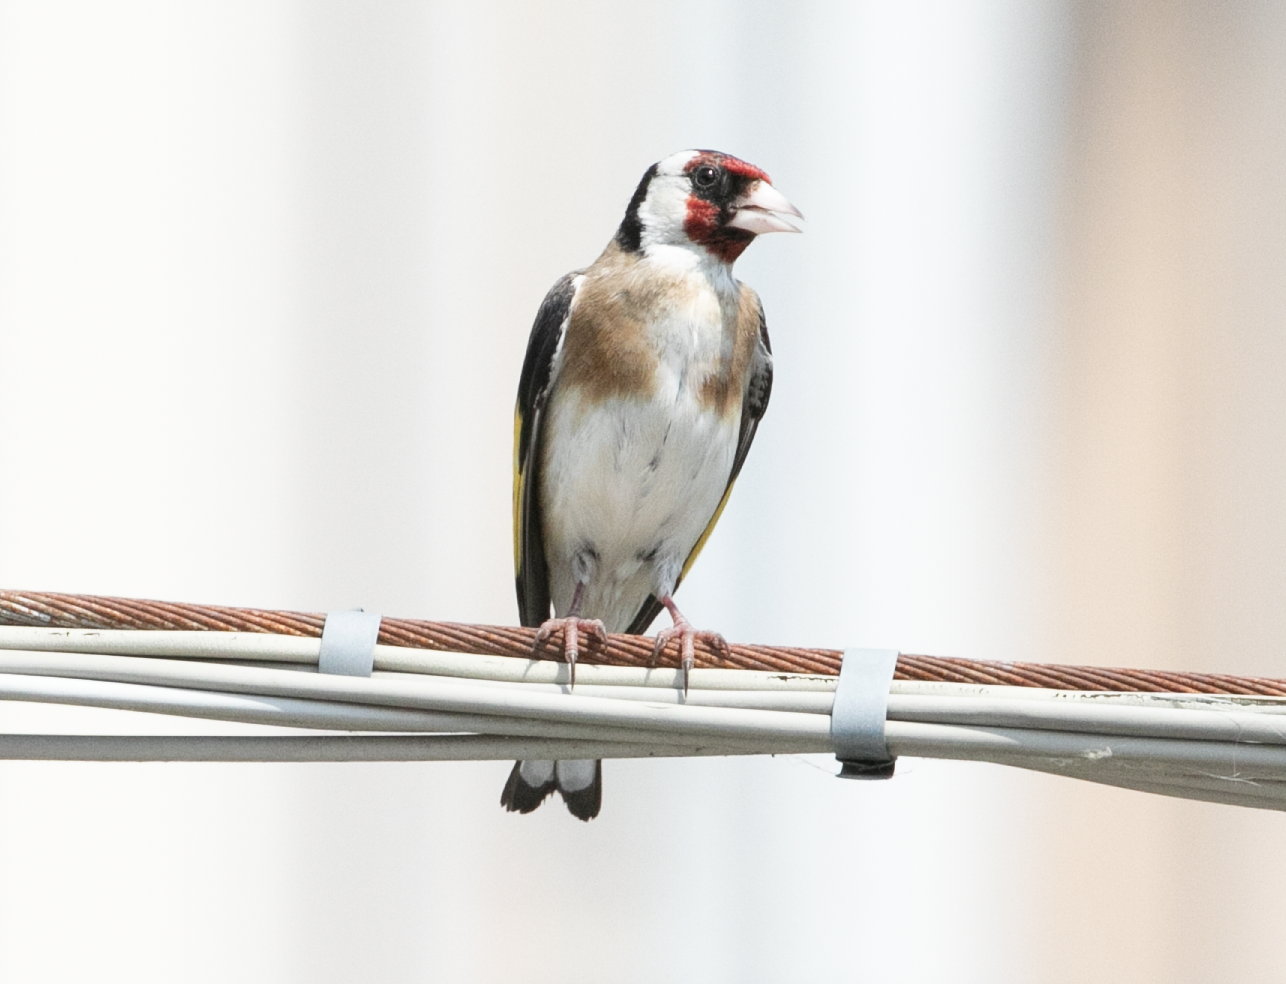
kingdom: Animalia
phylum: Chordata
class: Aves
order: Passeriformes
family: Fringillidae
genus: Carduelis
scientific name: Carduelis carduelis
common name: European goldfinch
